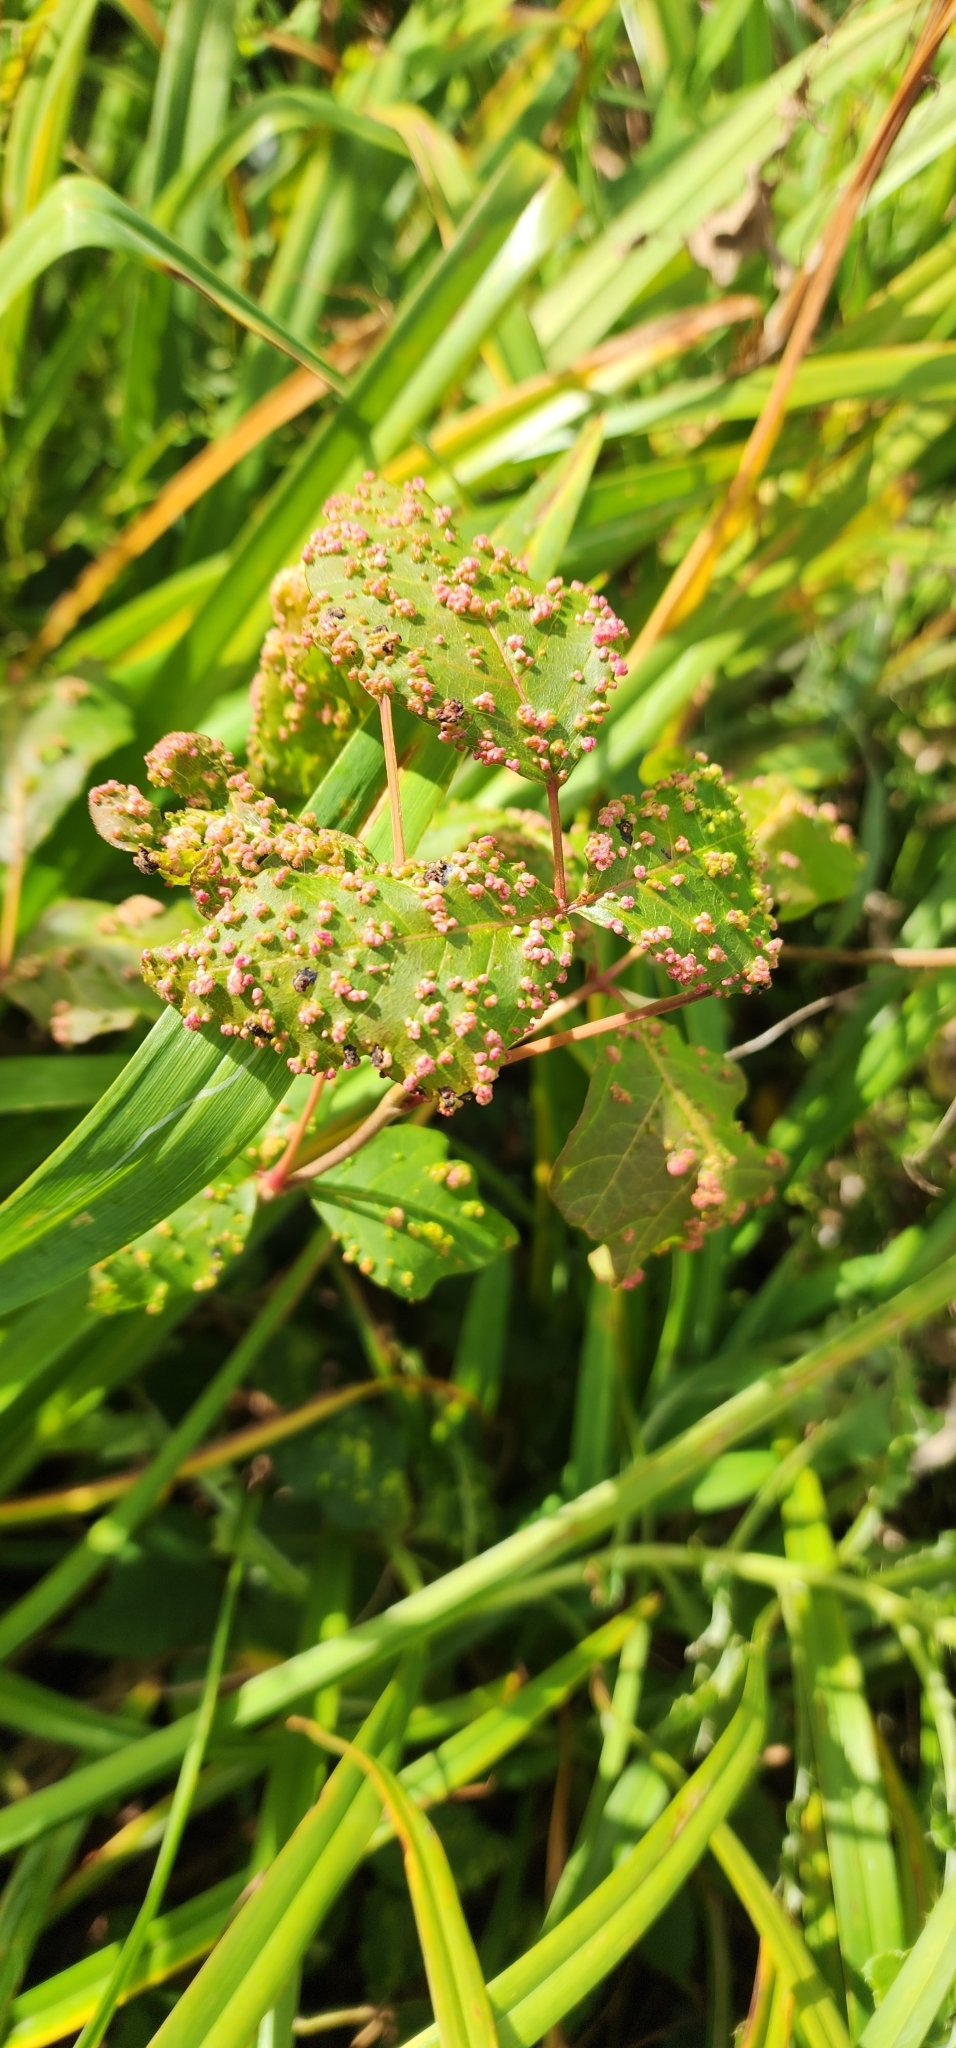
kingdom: Animalia
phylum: Arthropoda
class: Arachnida
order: Trombidiformes
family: Eriophyidae
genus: Aculops
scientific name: Aculops
